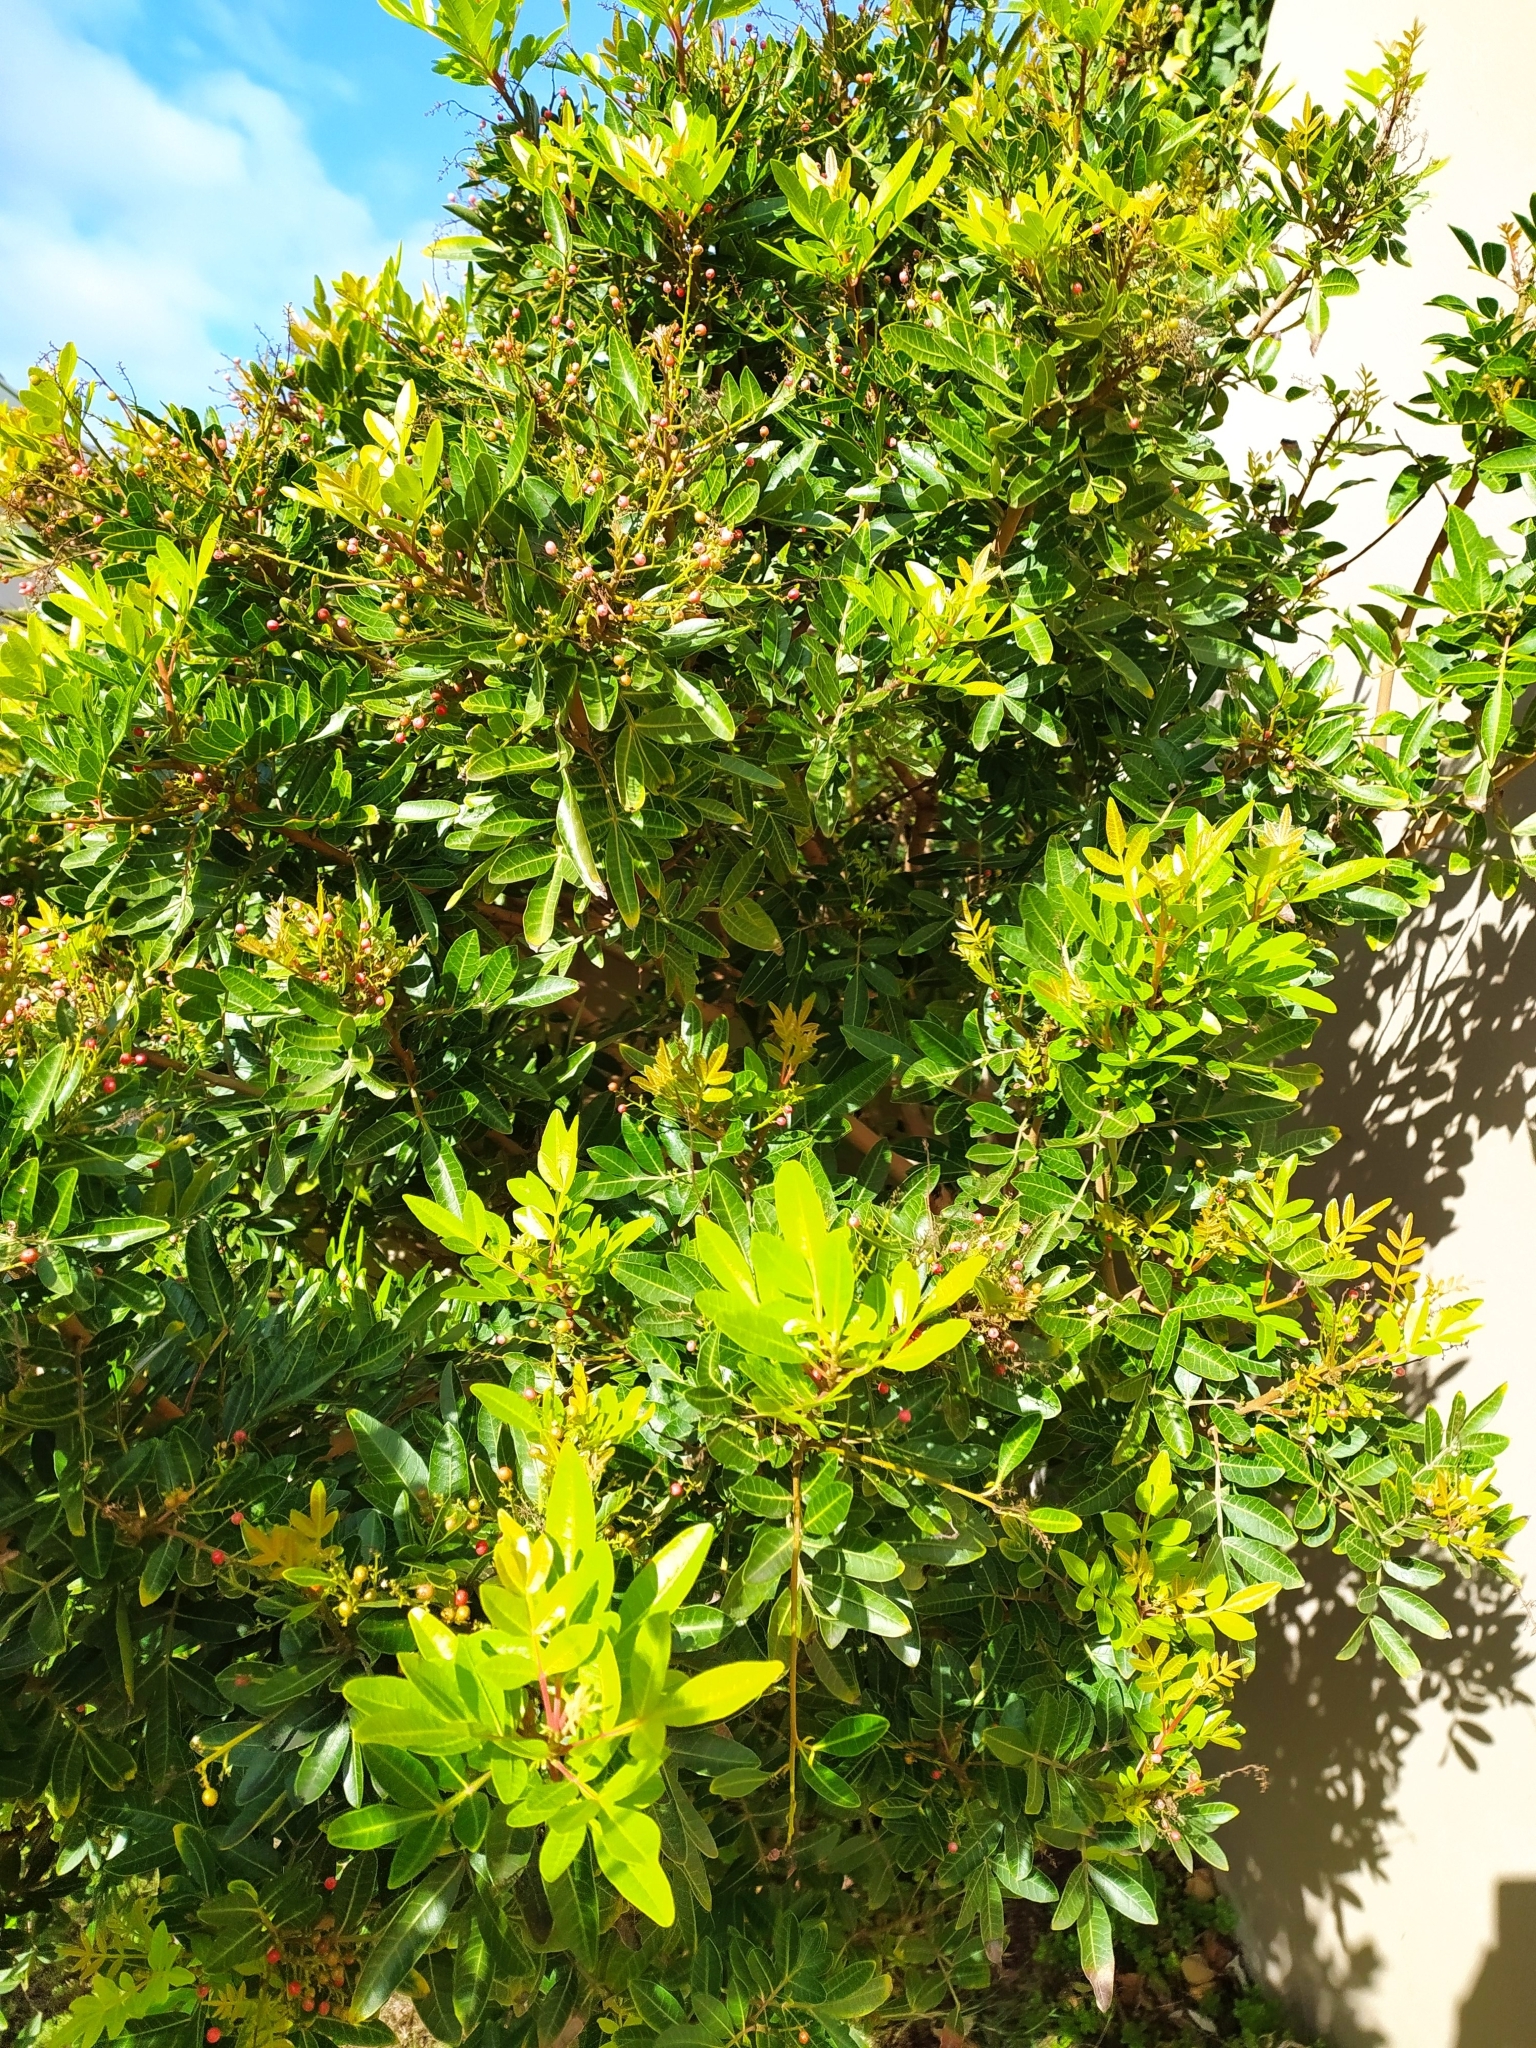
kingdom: Plantae
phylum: Tracheophyta
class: Magnoliopsida
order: Sapindales
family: Anacardiaceae
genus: Schinus
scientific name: Schinus terebinthifolia
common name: Brazilian peppertree
